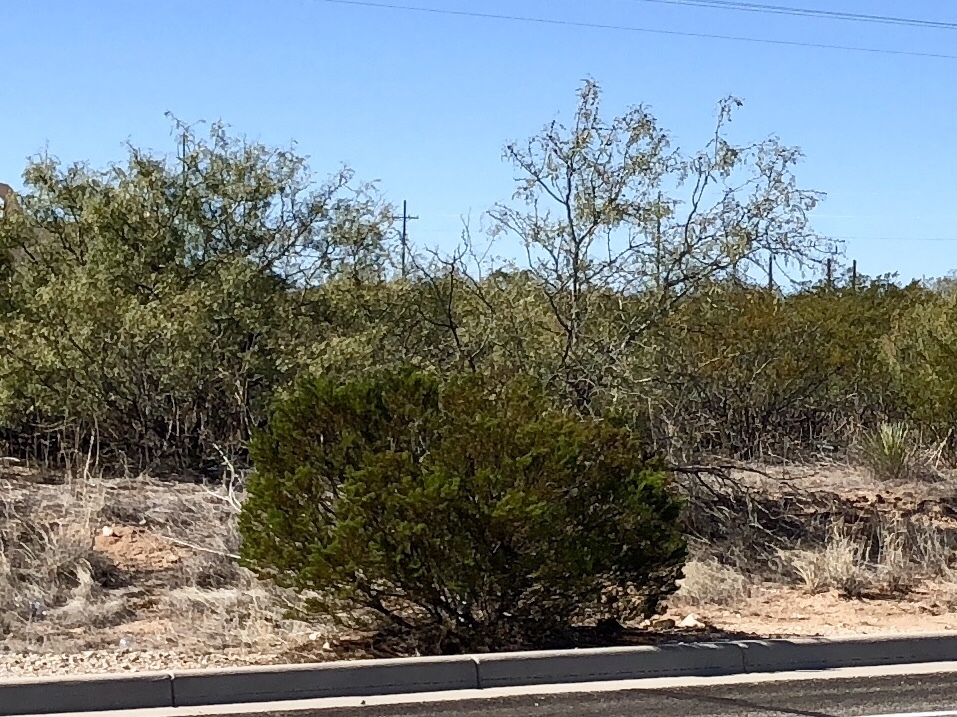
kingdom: Plantae
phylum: Tracheophyta
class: Magnoliopsida
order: Zygophyllales
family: Zygophyllaceae
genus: Larrea
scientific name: Larrea tridentata
